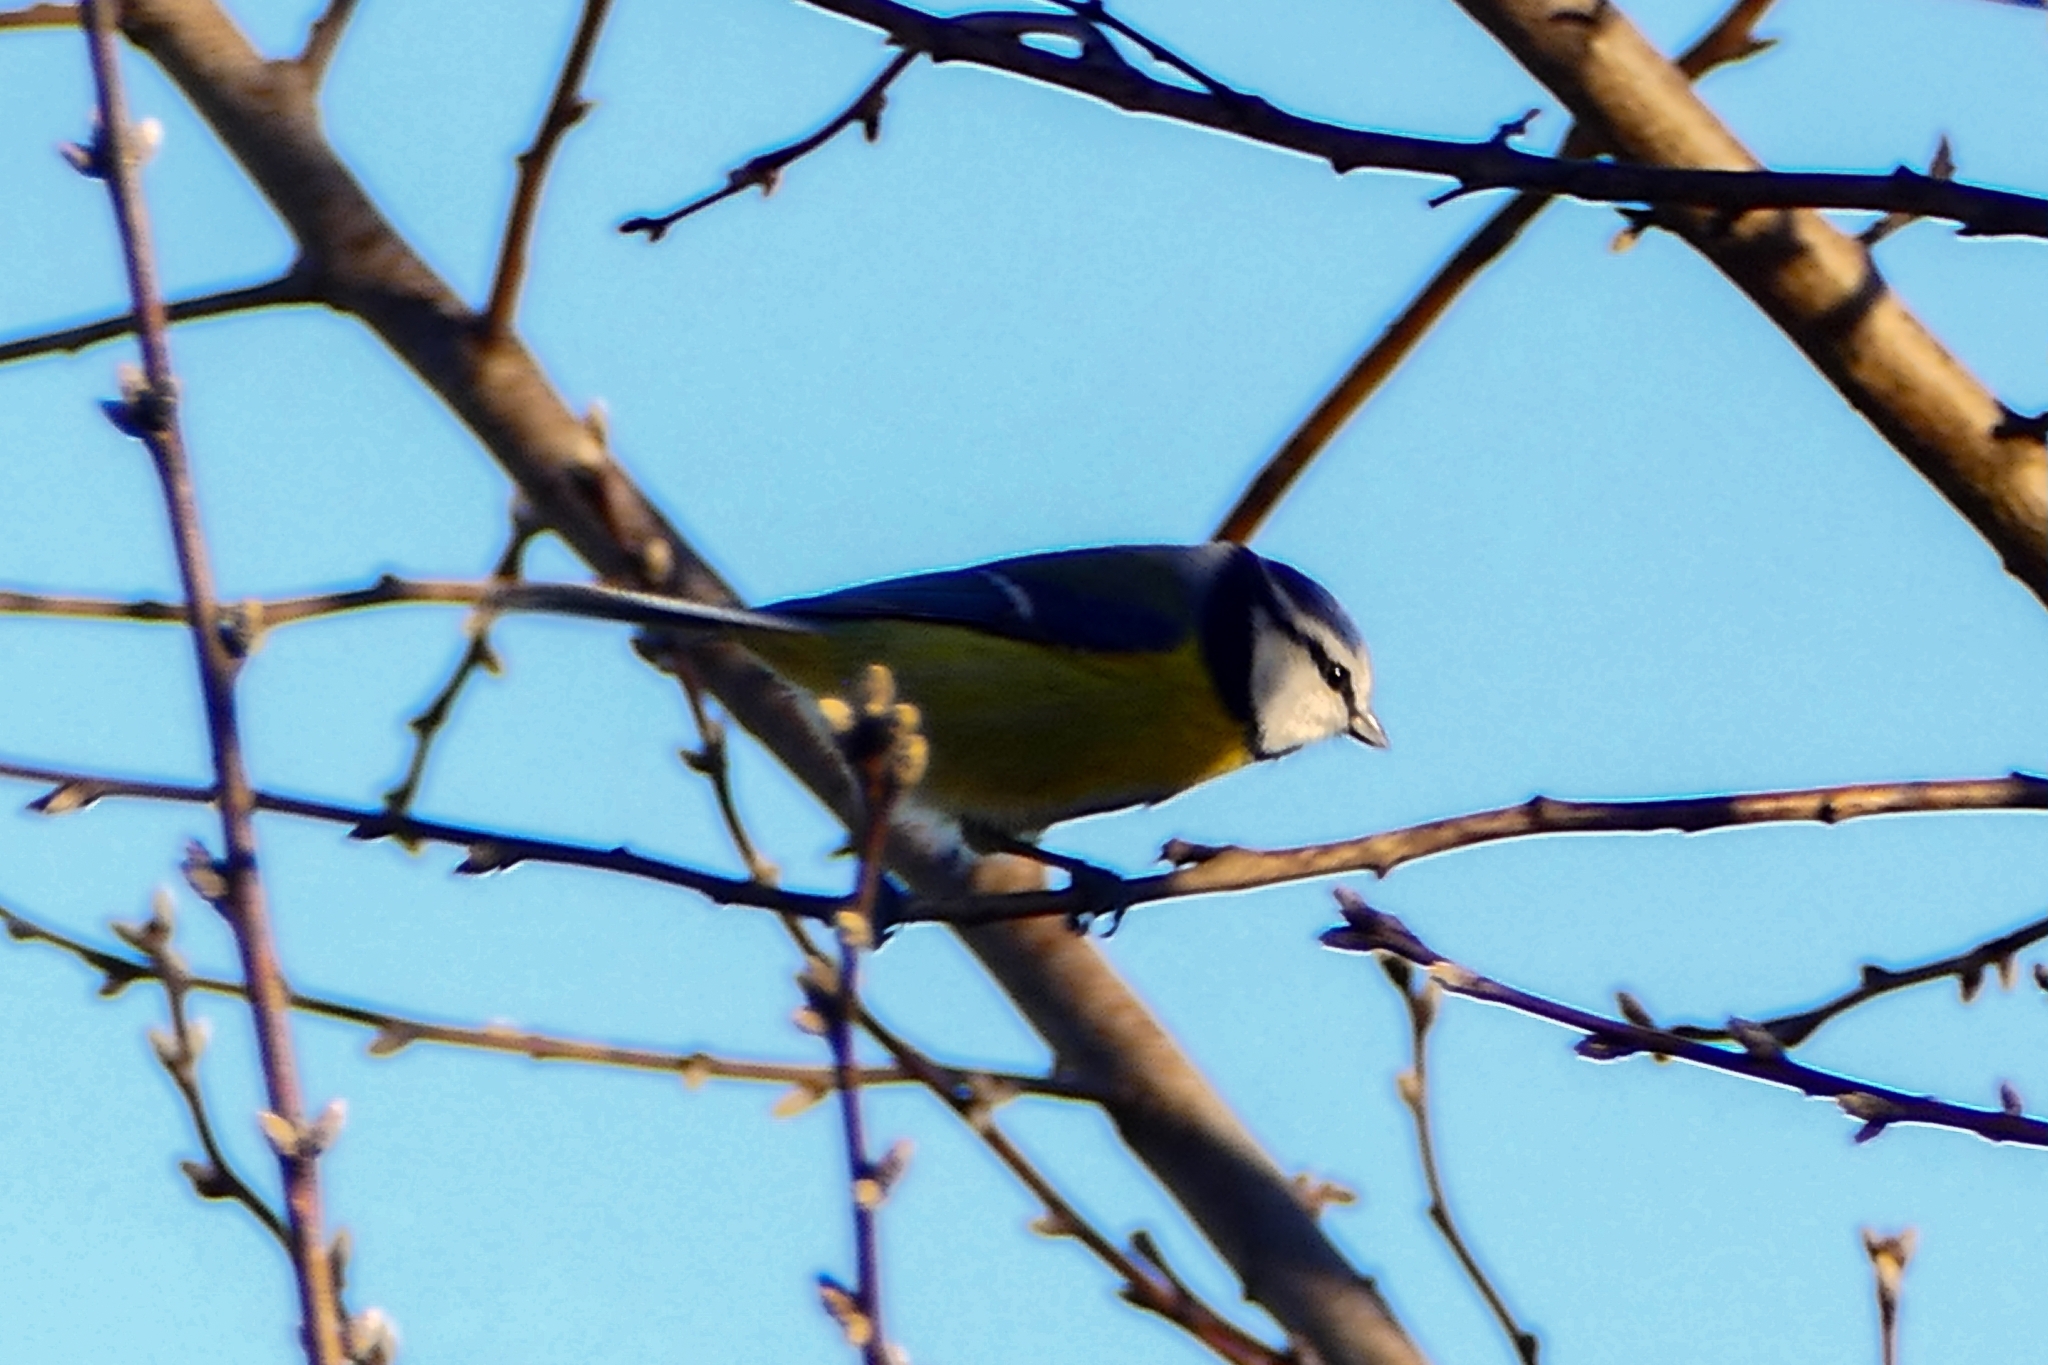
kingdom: Animalia
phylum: Chordata
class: Aves
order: Passeriformes
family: Paridae
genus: Cyanistes
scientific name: Cyanistes caeruleus
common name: Eurasian blue tit
